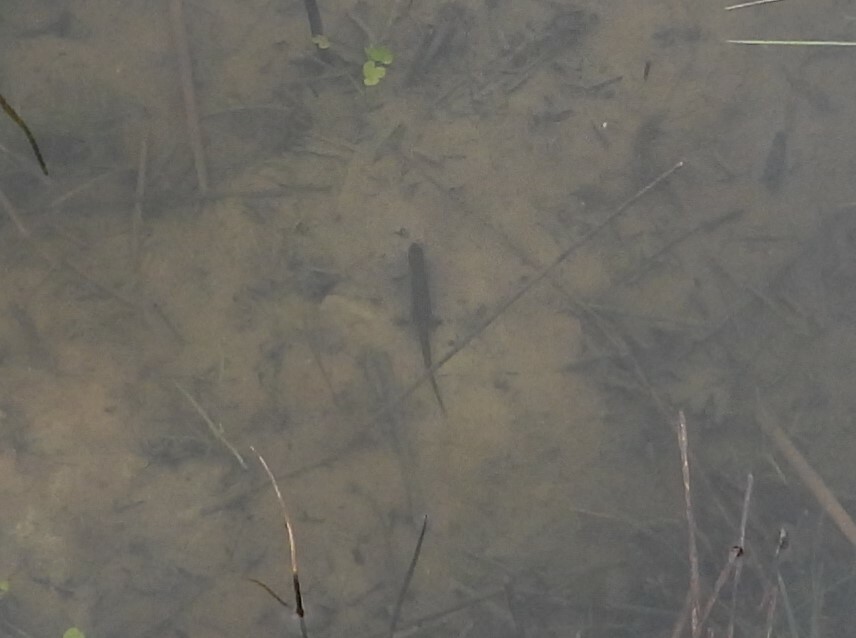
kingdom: Animalia
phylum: Chordata
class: Amphibia
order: Caudata
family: Salamandridae
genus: Lissotriton
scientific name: Lissotriton vulgaris
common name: Smooth newt
